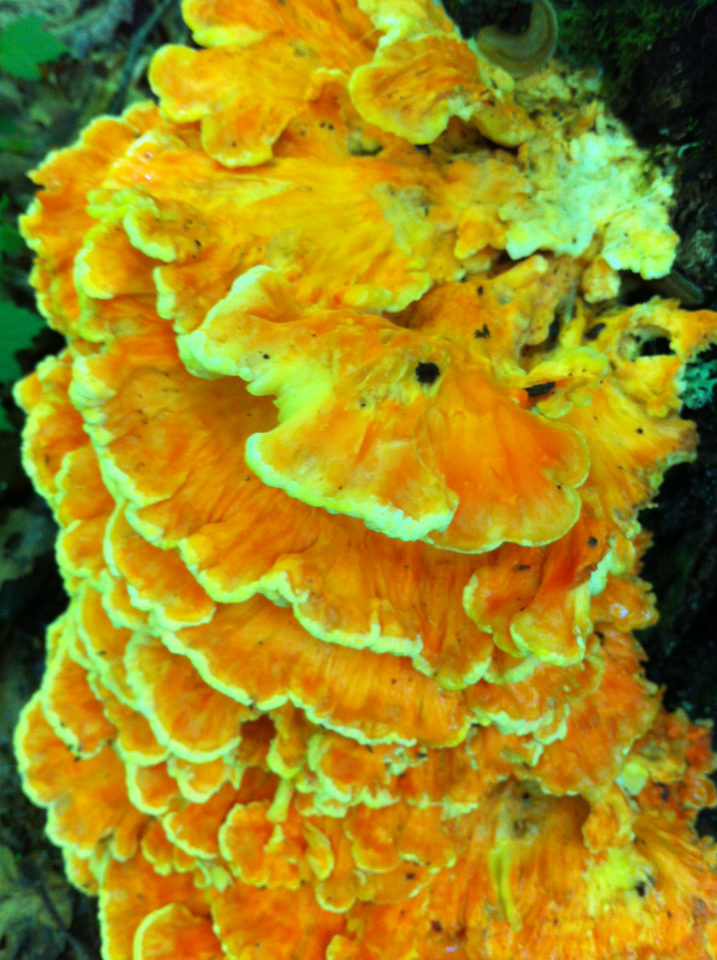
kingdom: Fungi
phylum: Basidiomycota
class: Agaricomycetes
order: Polyporales
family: Laetiporaceae
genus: Laetiporus
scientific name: Laetiporus sulphureus
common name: Chicken of the woods
